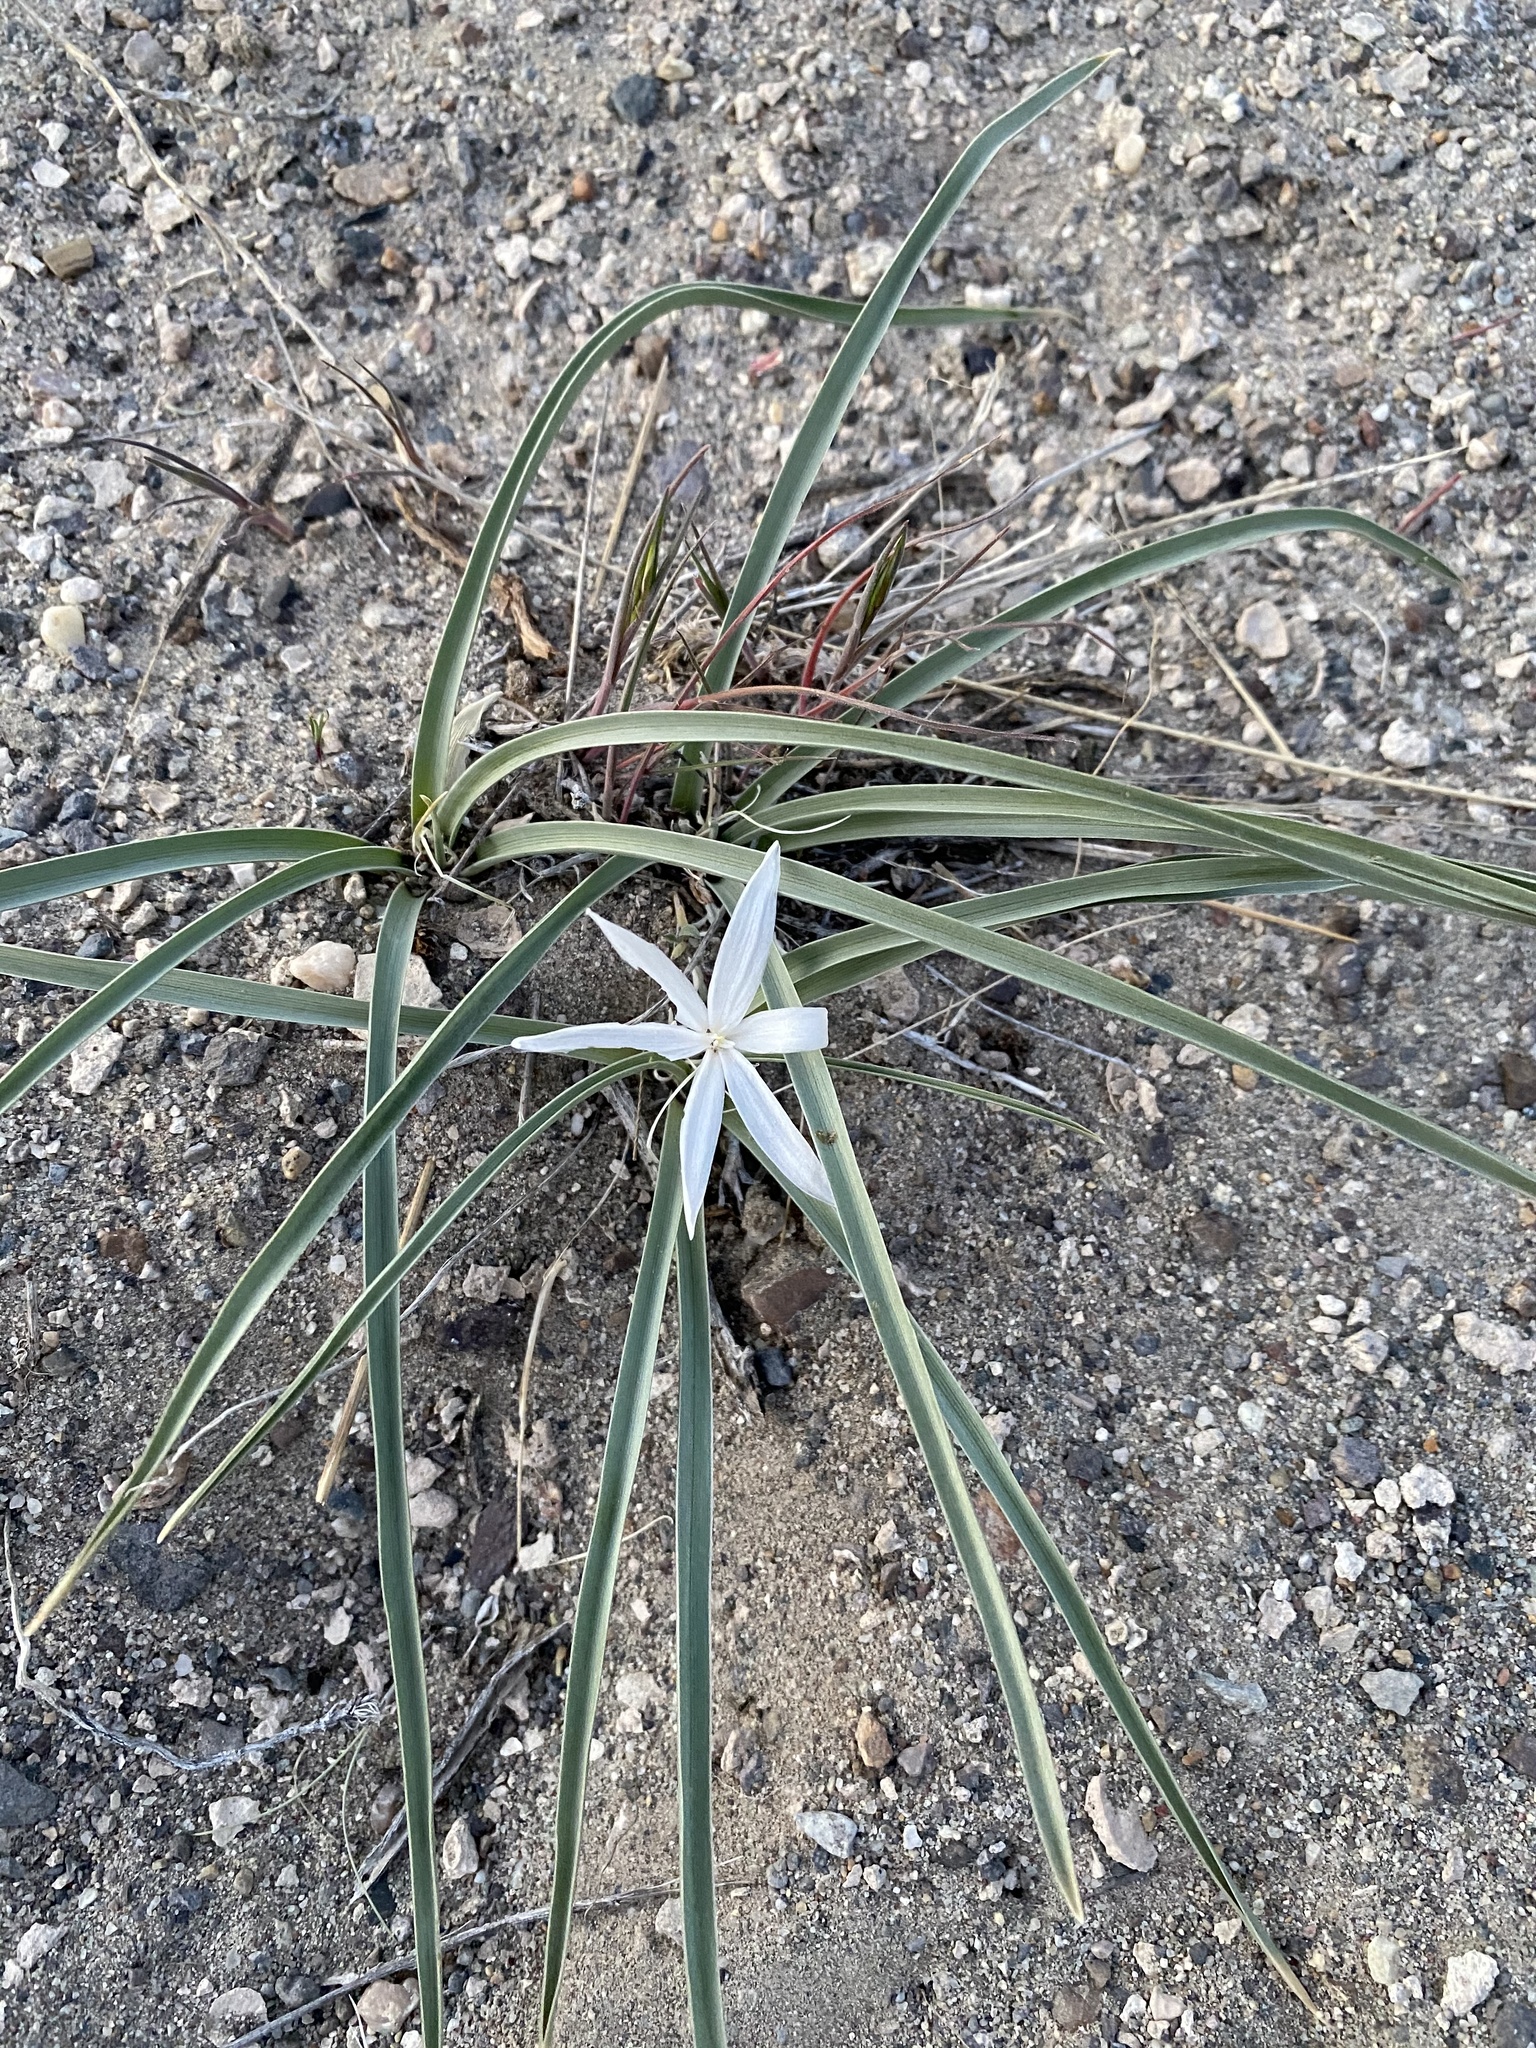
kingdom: Plantae
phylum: Tracheophyta
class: Liliopsida
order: Asparagales
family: Asparagaceae
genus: Leucocrinum
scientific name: Leucocrinum montanum
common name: Mountain-lily
